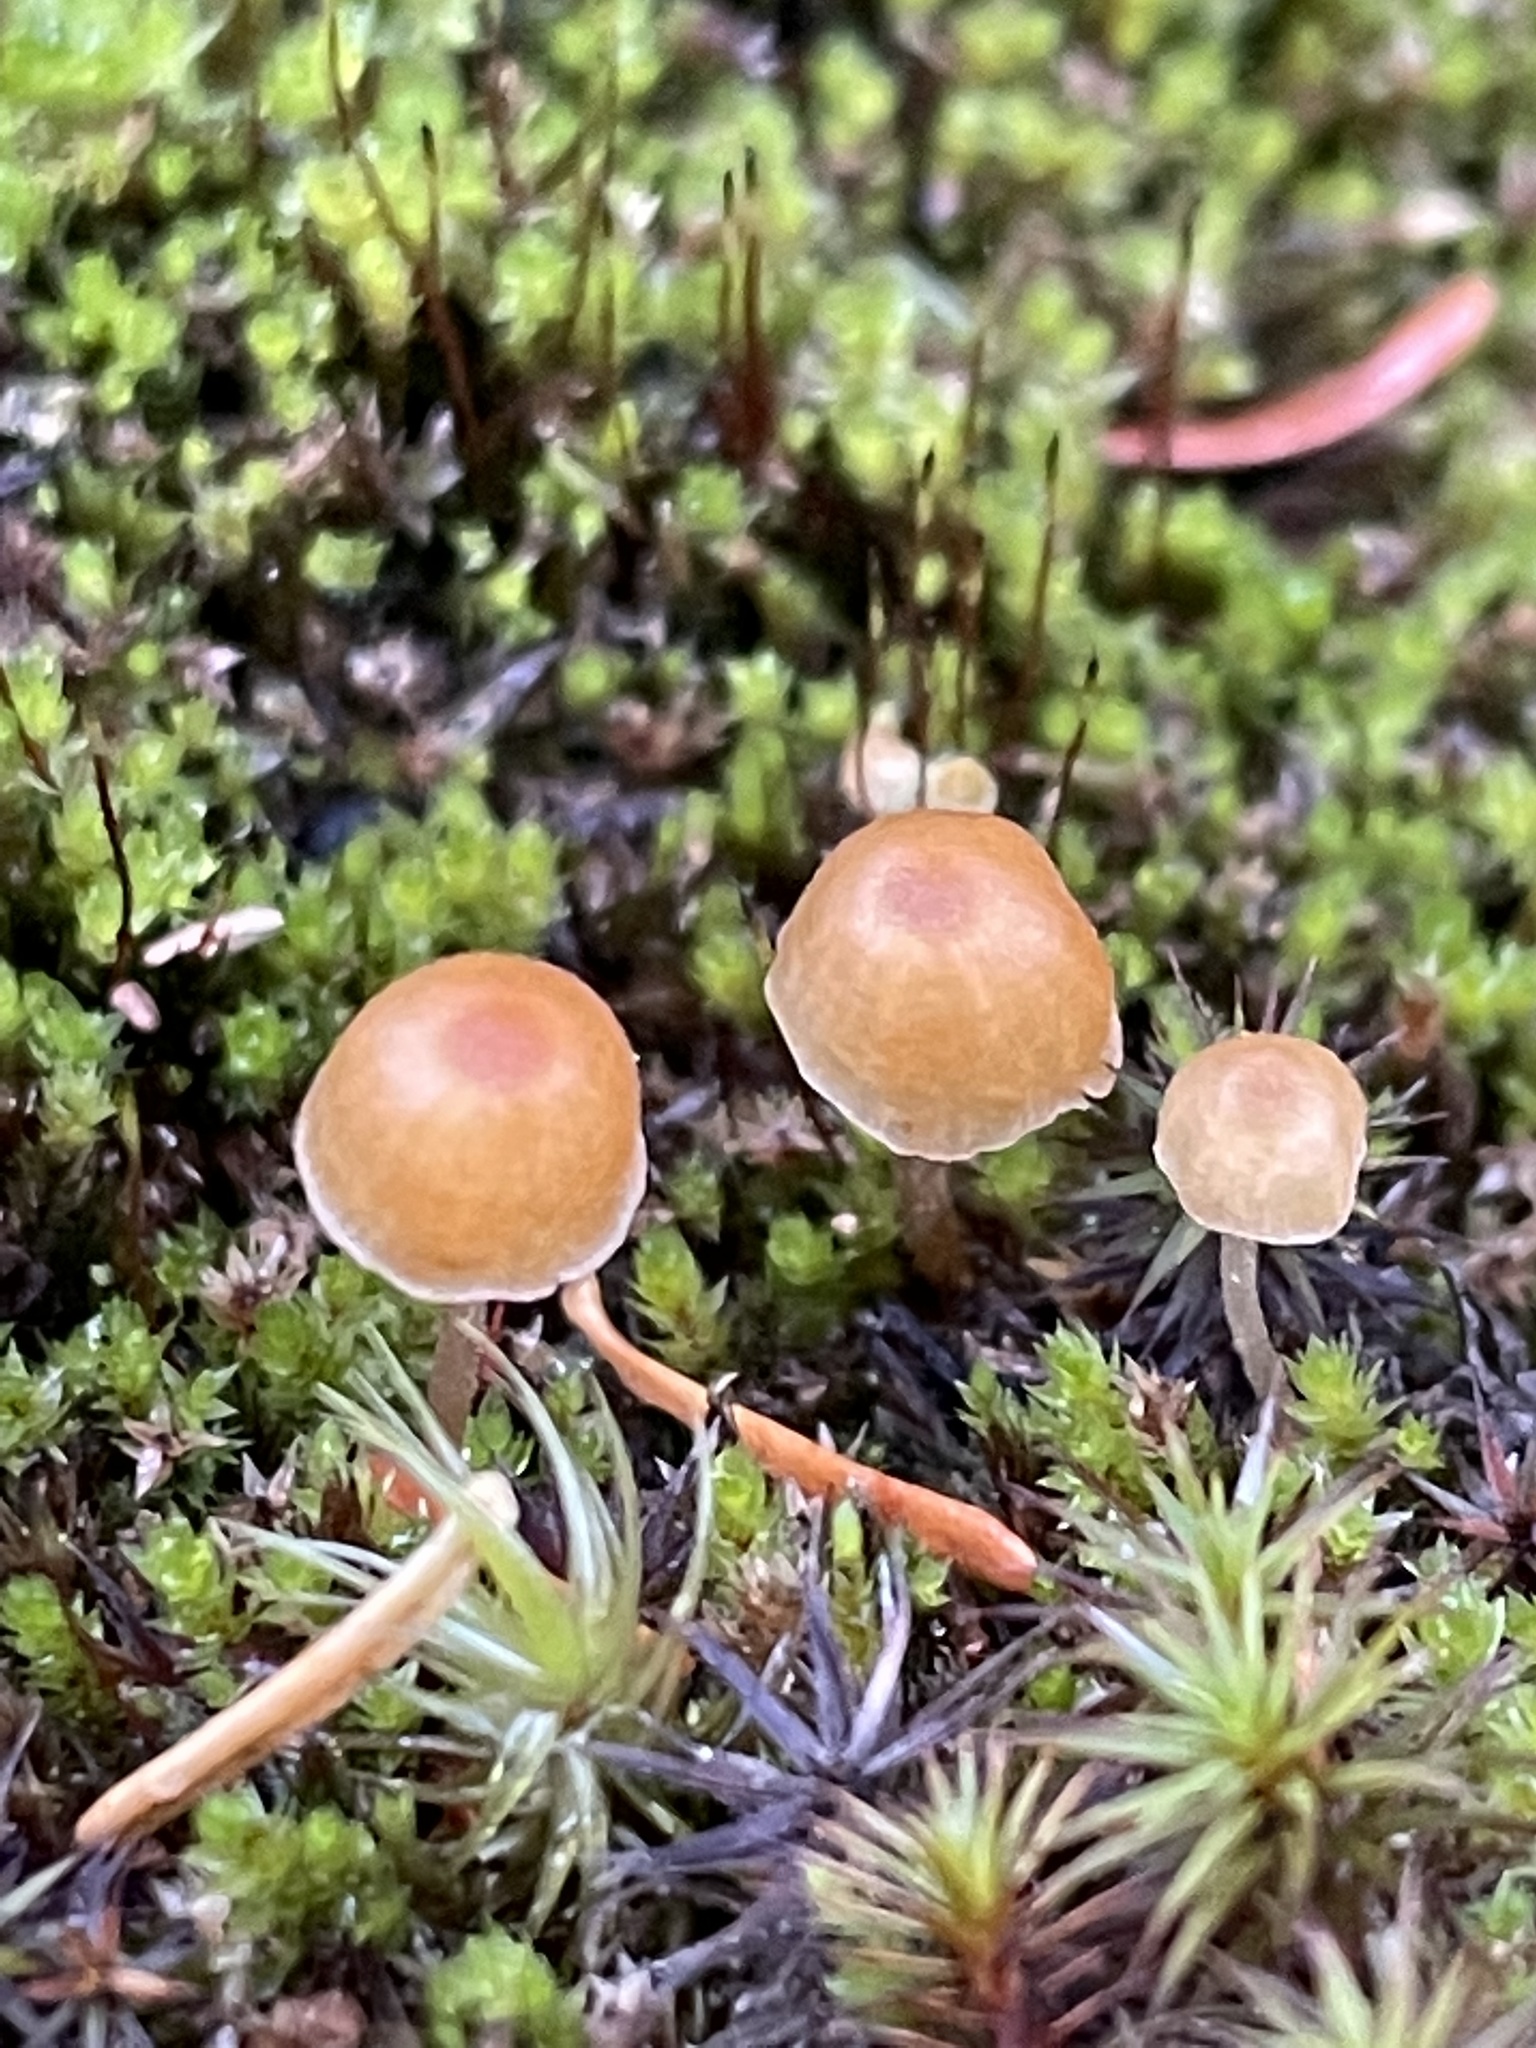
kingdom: Fungi
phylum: Basidiomycota
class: Agaricomycetes
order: Agaricales
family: Hymenogastraceae
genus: Galerina
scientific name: Galerina hypnorum
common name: Moss bell
